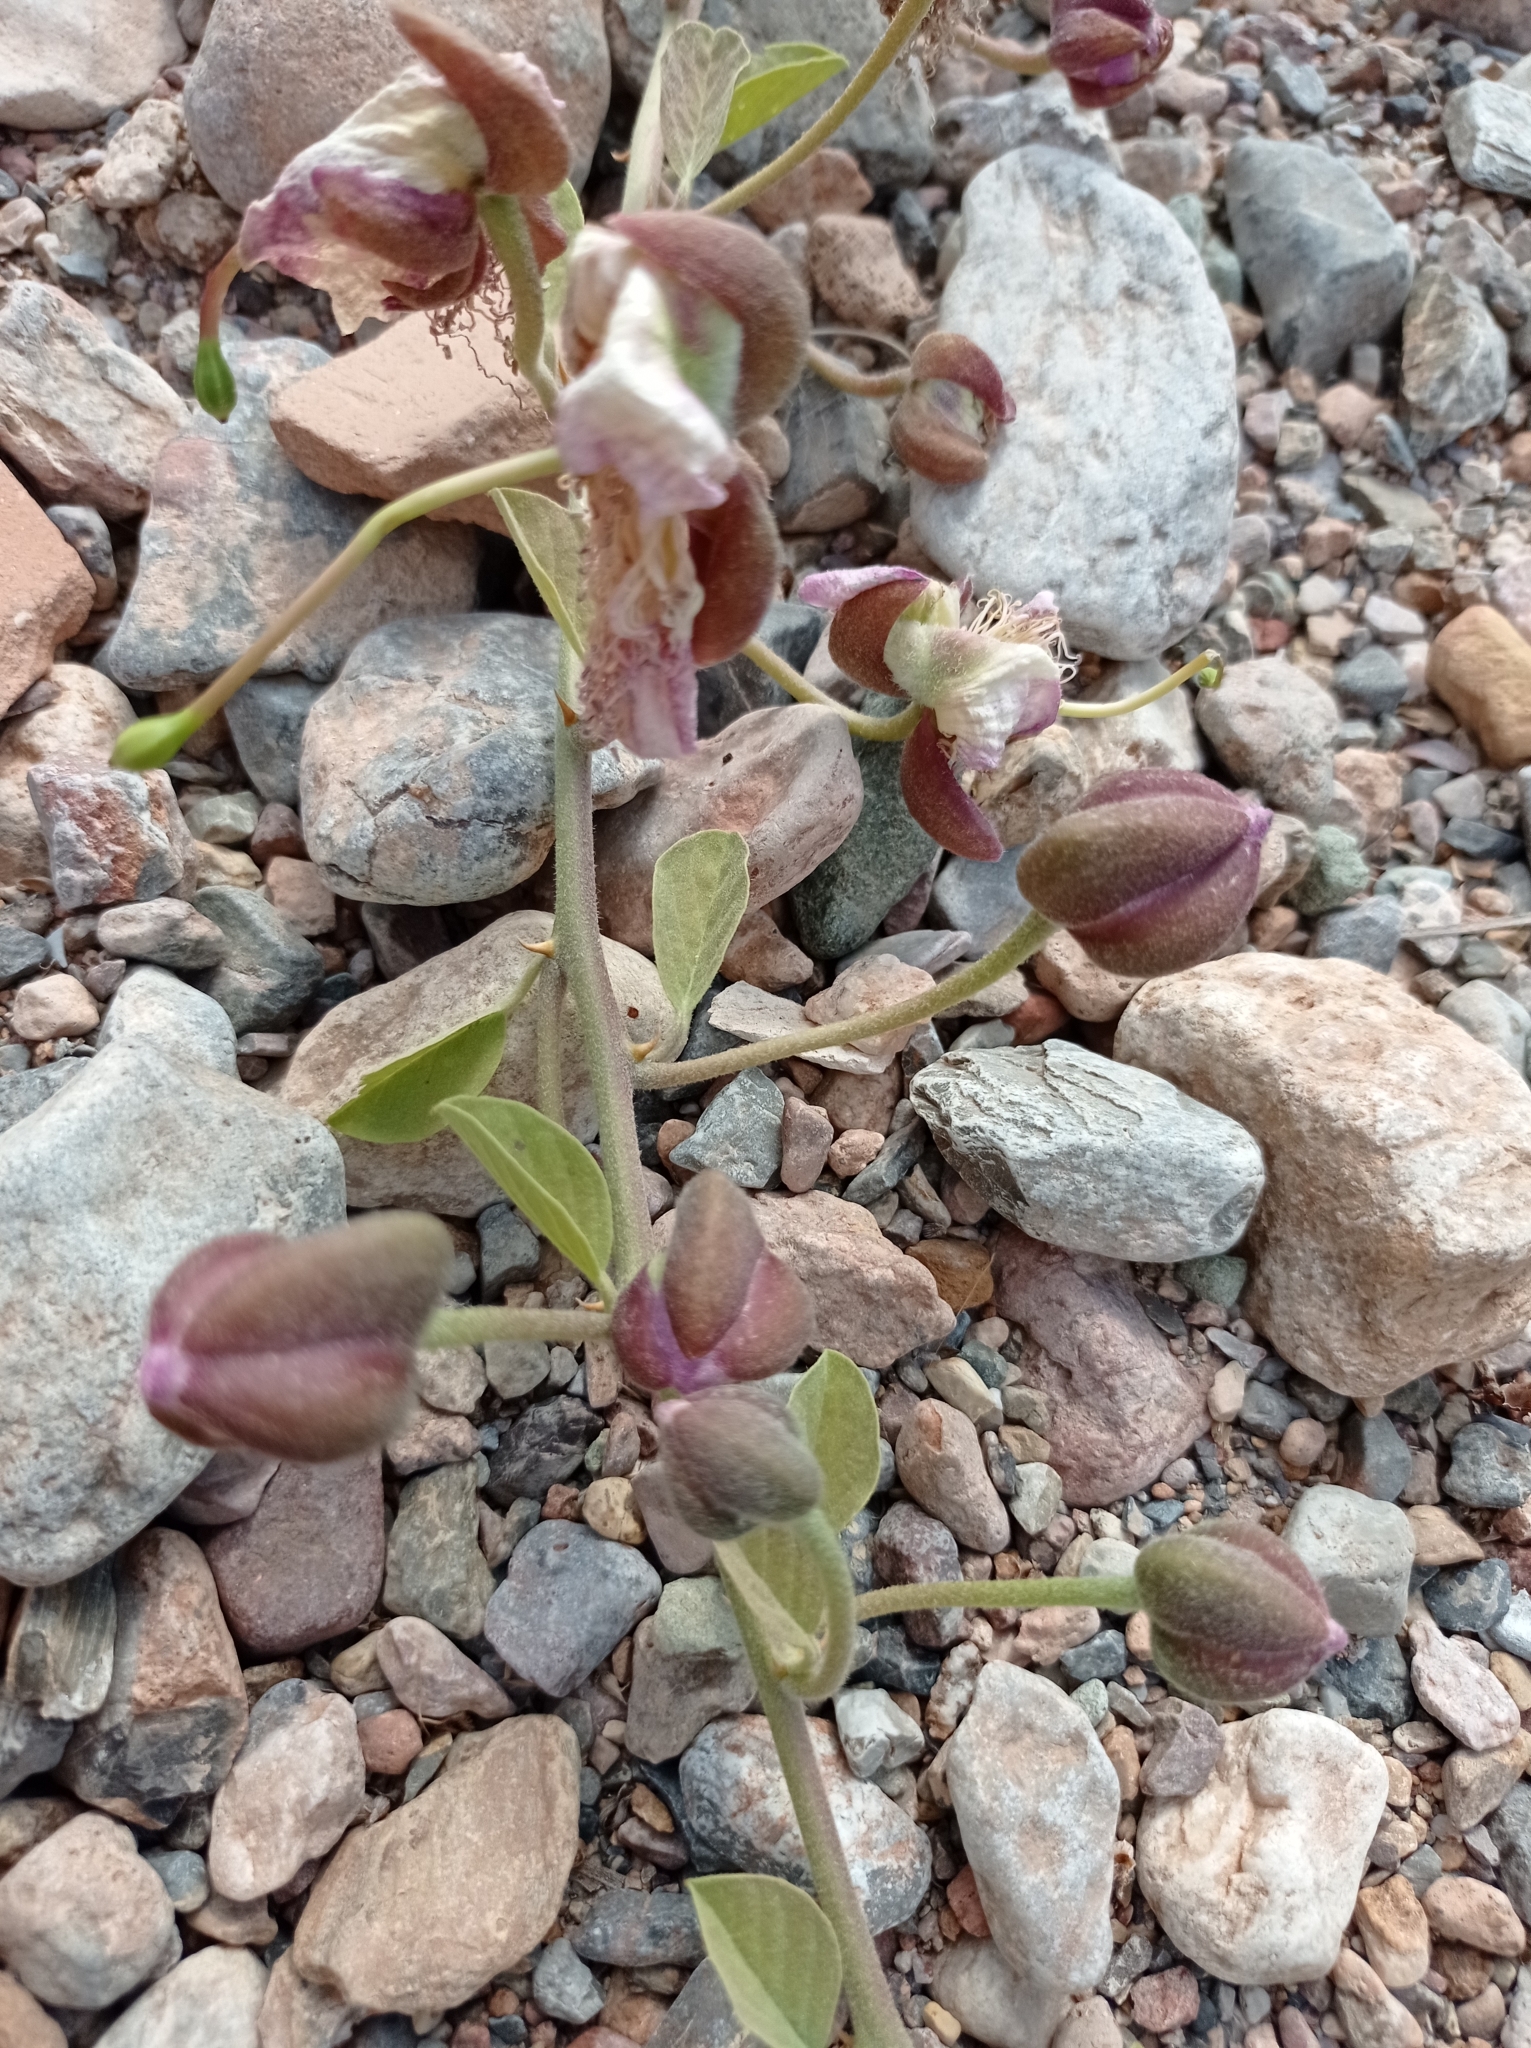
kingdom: Plantae
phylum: Tracheophyta
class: Magnoliopsida
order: Brassicales
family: Capparaceae
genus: Capparis
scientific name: Capparis spinosa
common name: Caper
